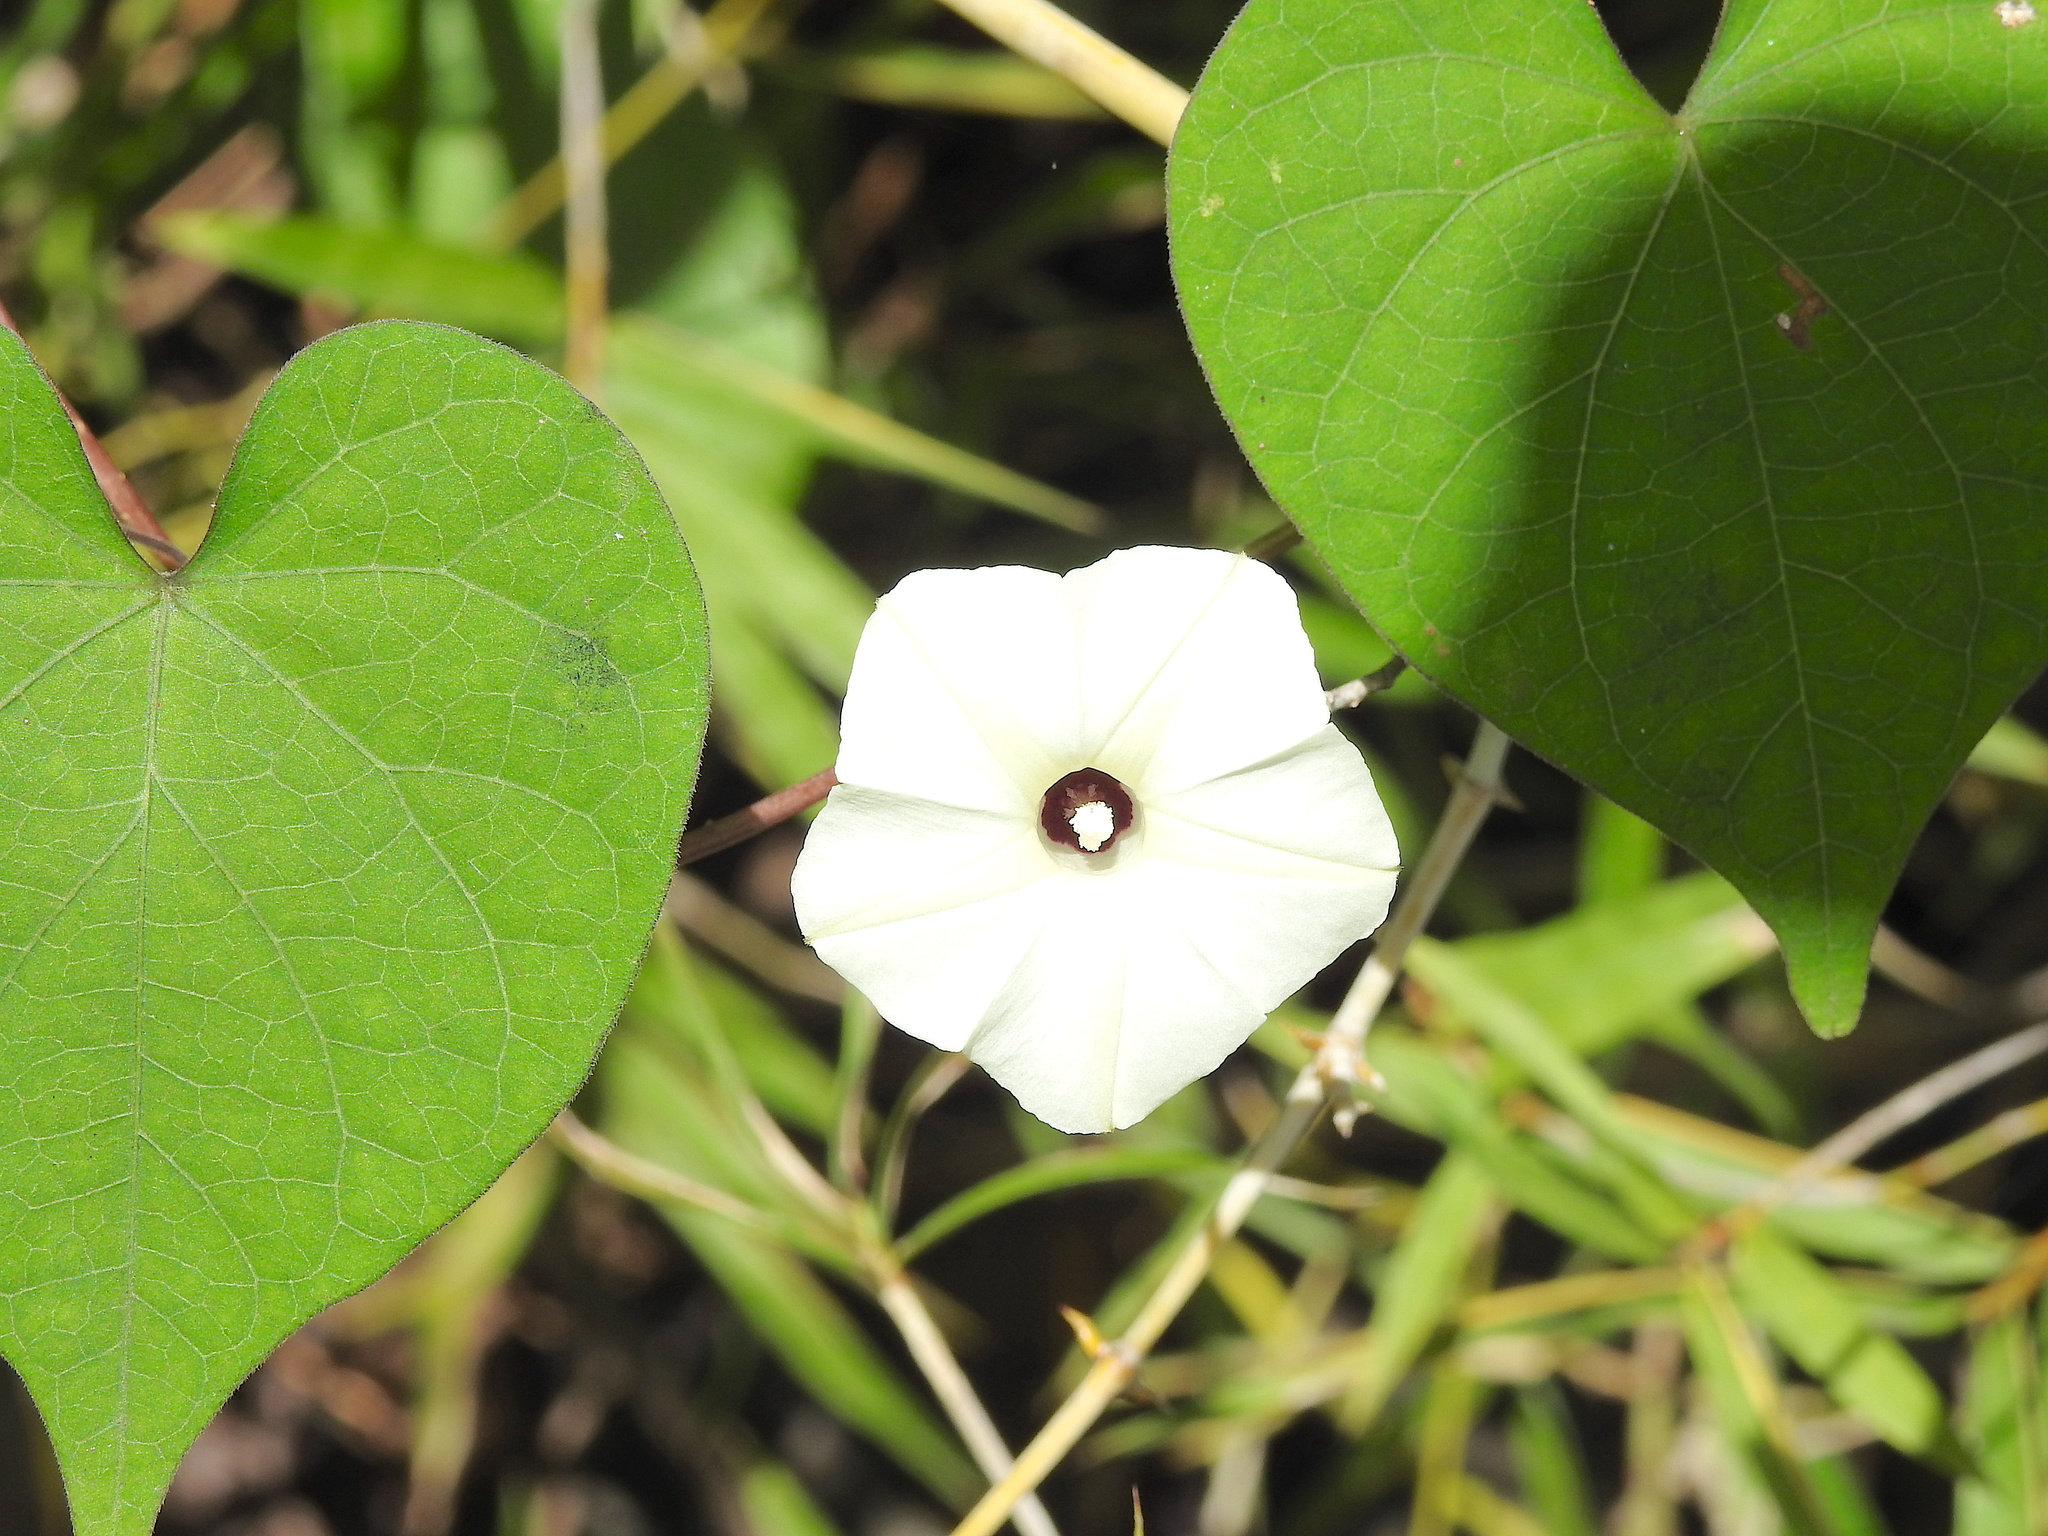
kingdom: Plantae
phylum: Tracheophyta
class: Magnoliopsida
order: Solanales
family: Convolvulaceae
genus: Ipomoea
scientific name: Ipomoea obscura
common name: Obscure morning-glory
